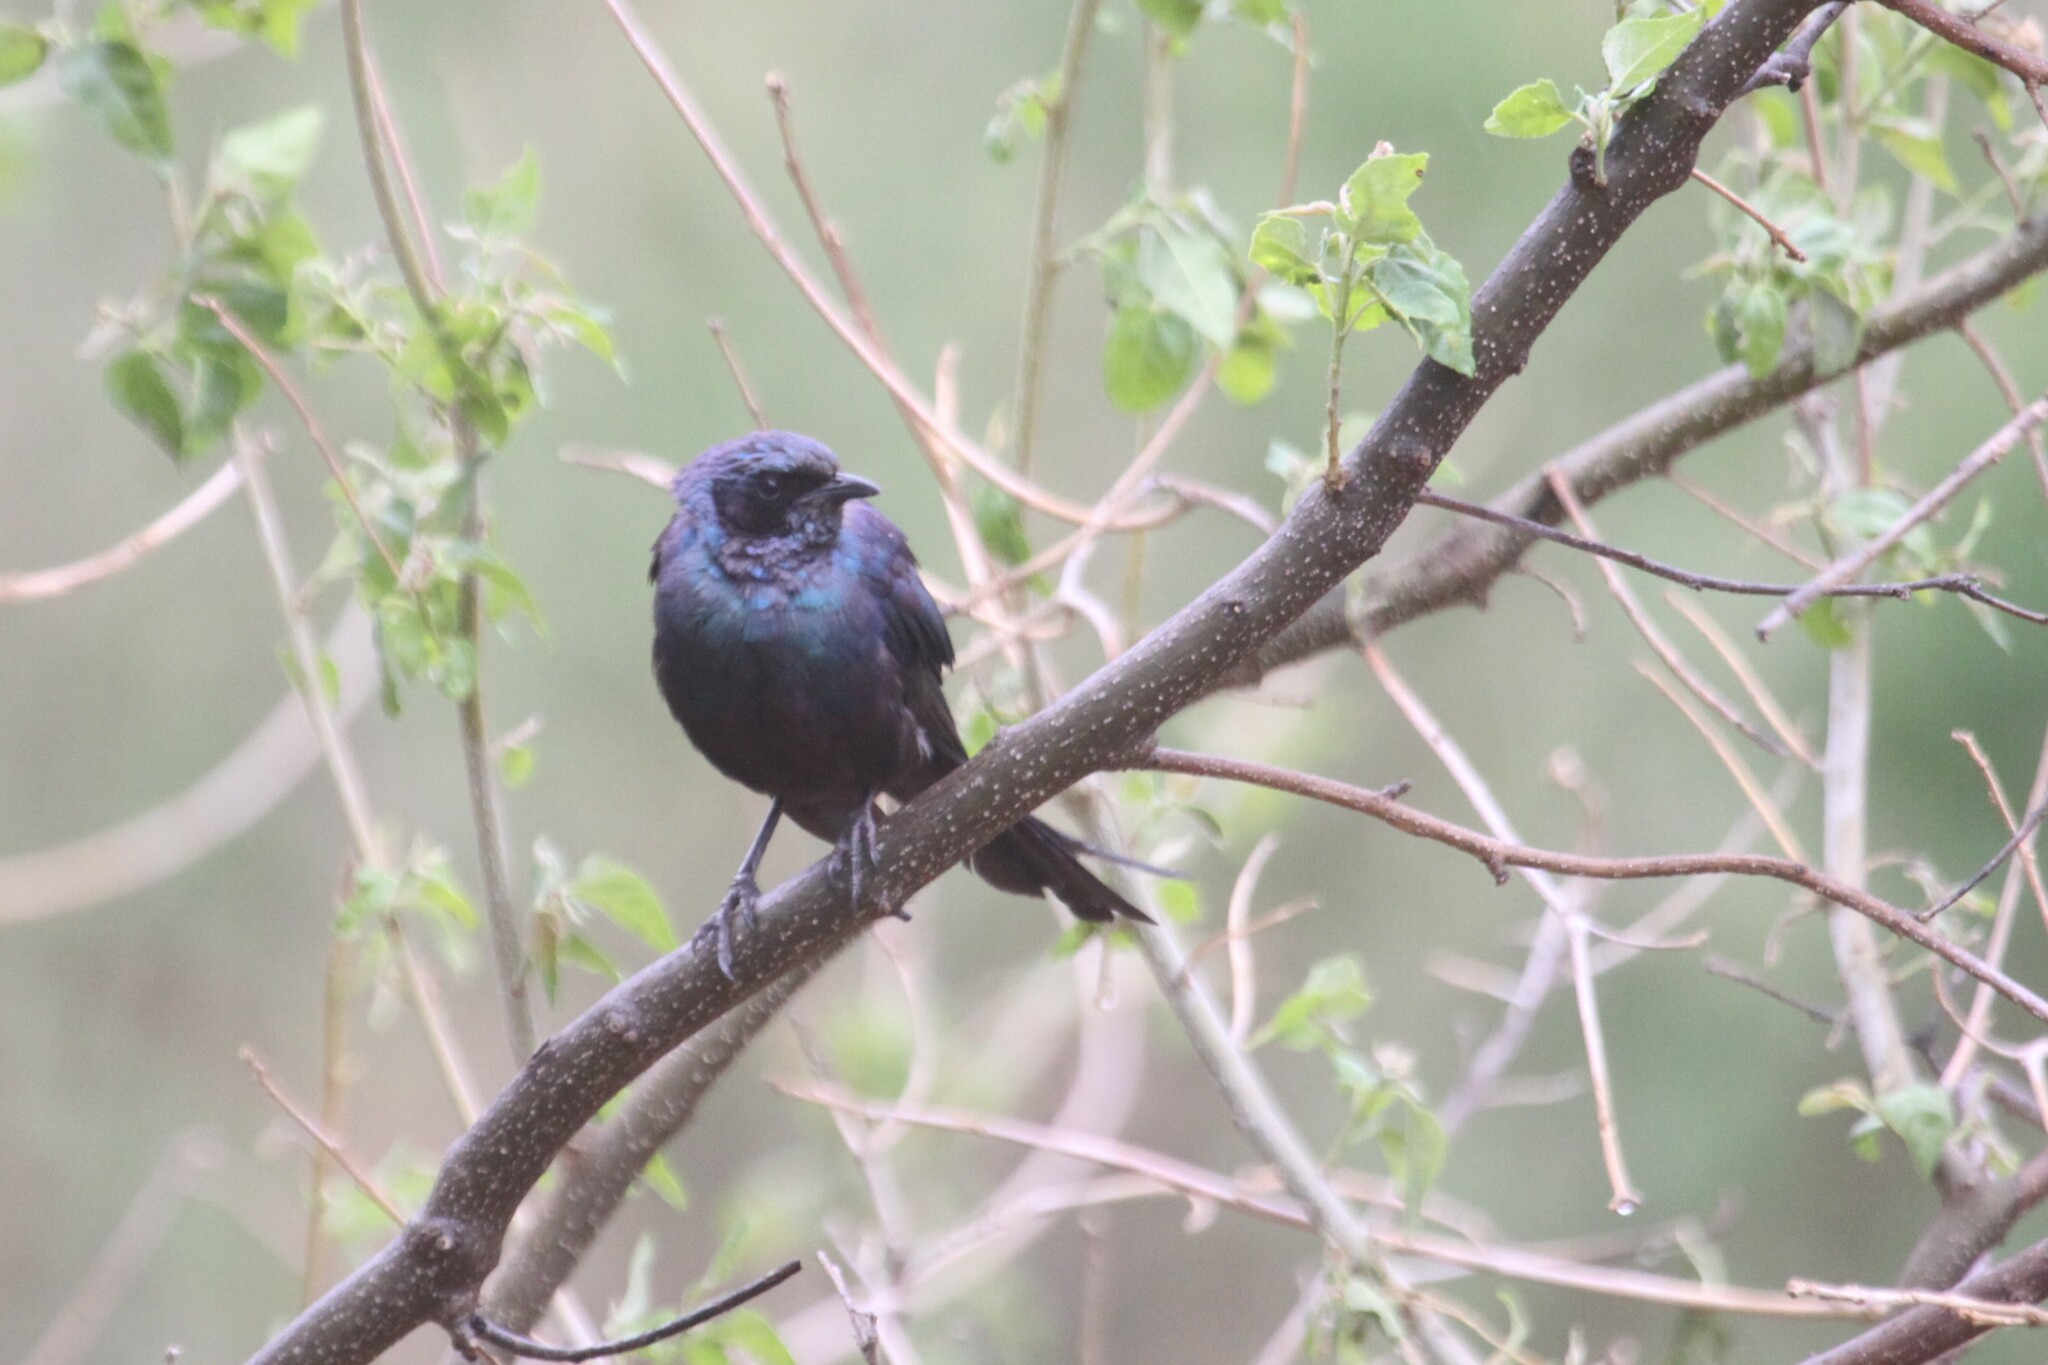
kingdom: Animalia
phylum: Chordata
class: Aves
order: Passeriformes
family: Sturnidae
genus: Lamprotornis
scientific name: Lamprotornis mevesii
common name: Meves's starling
